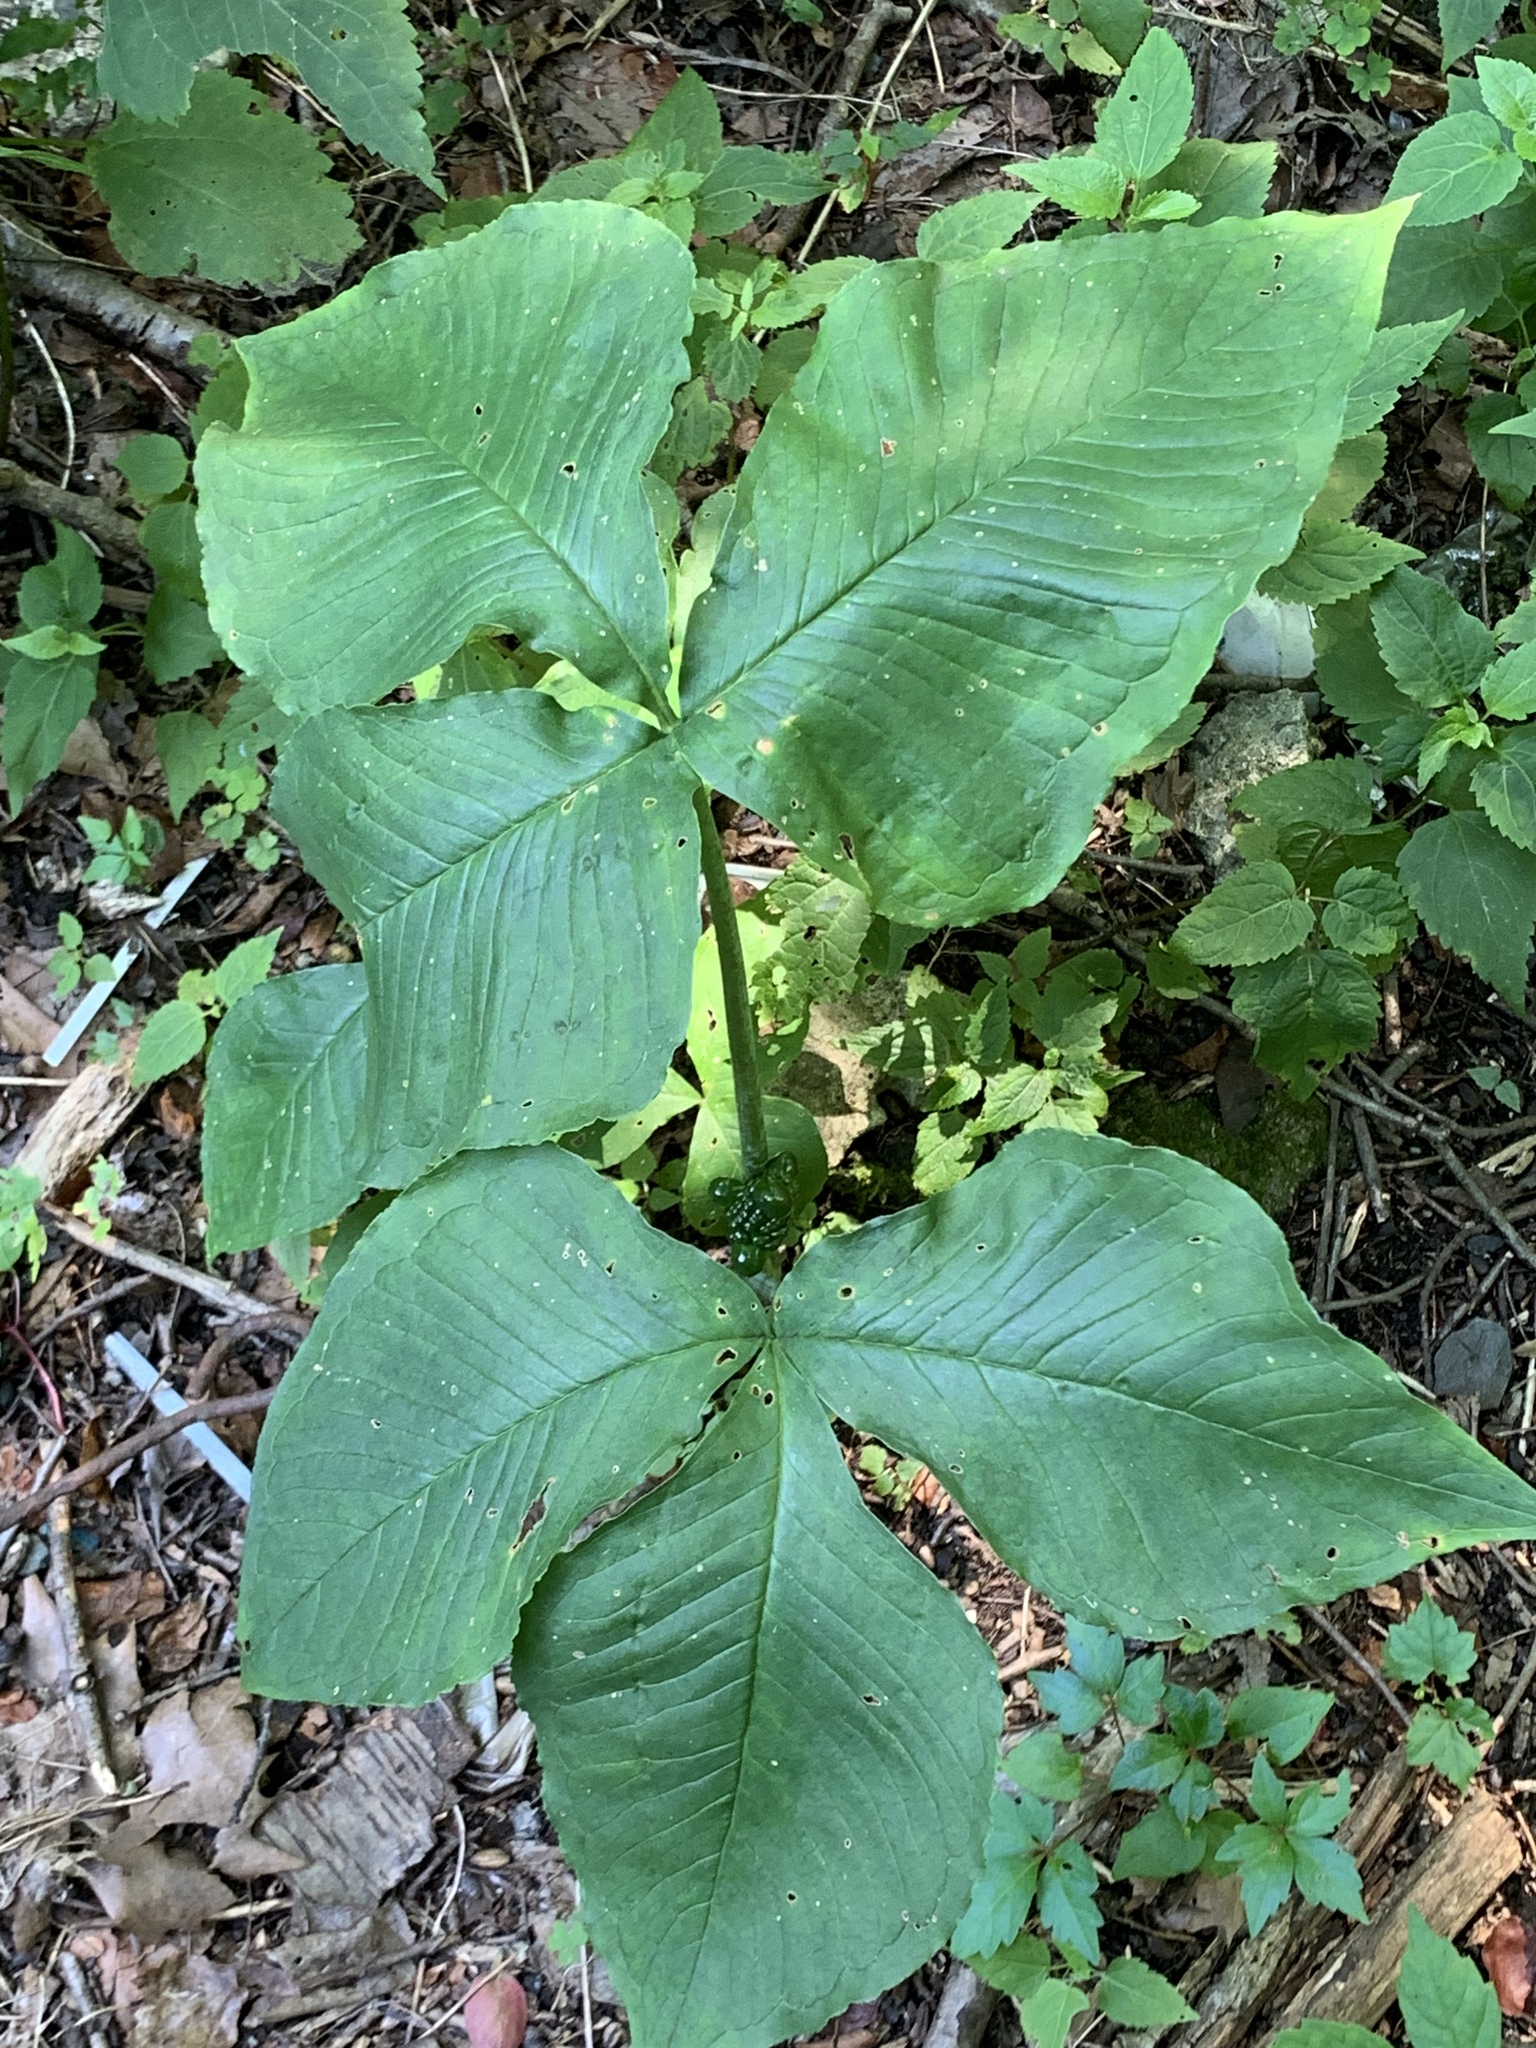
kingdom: Plantae
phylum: Tracheophyta
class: Liliopsida
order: Alismatales
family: Araceae
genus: Arisaema
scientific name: Arisaema triphyllum
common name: Jack-in-the-pulpit
